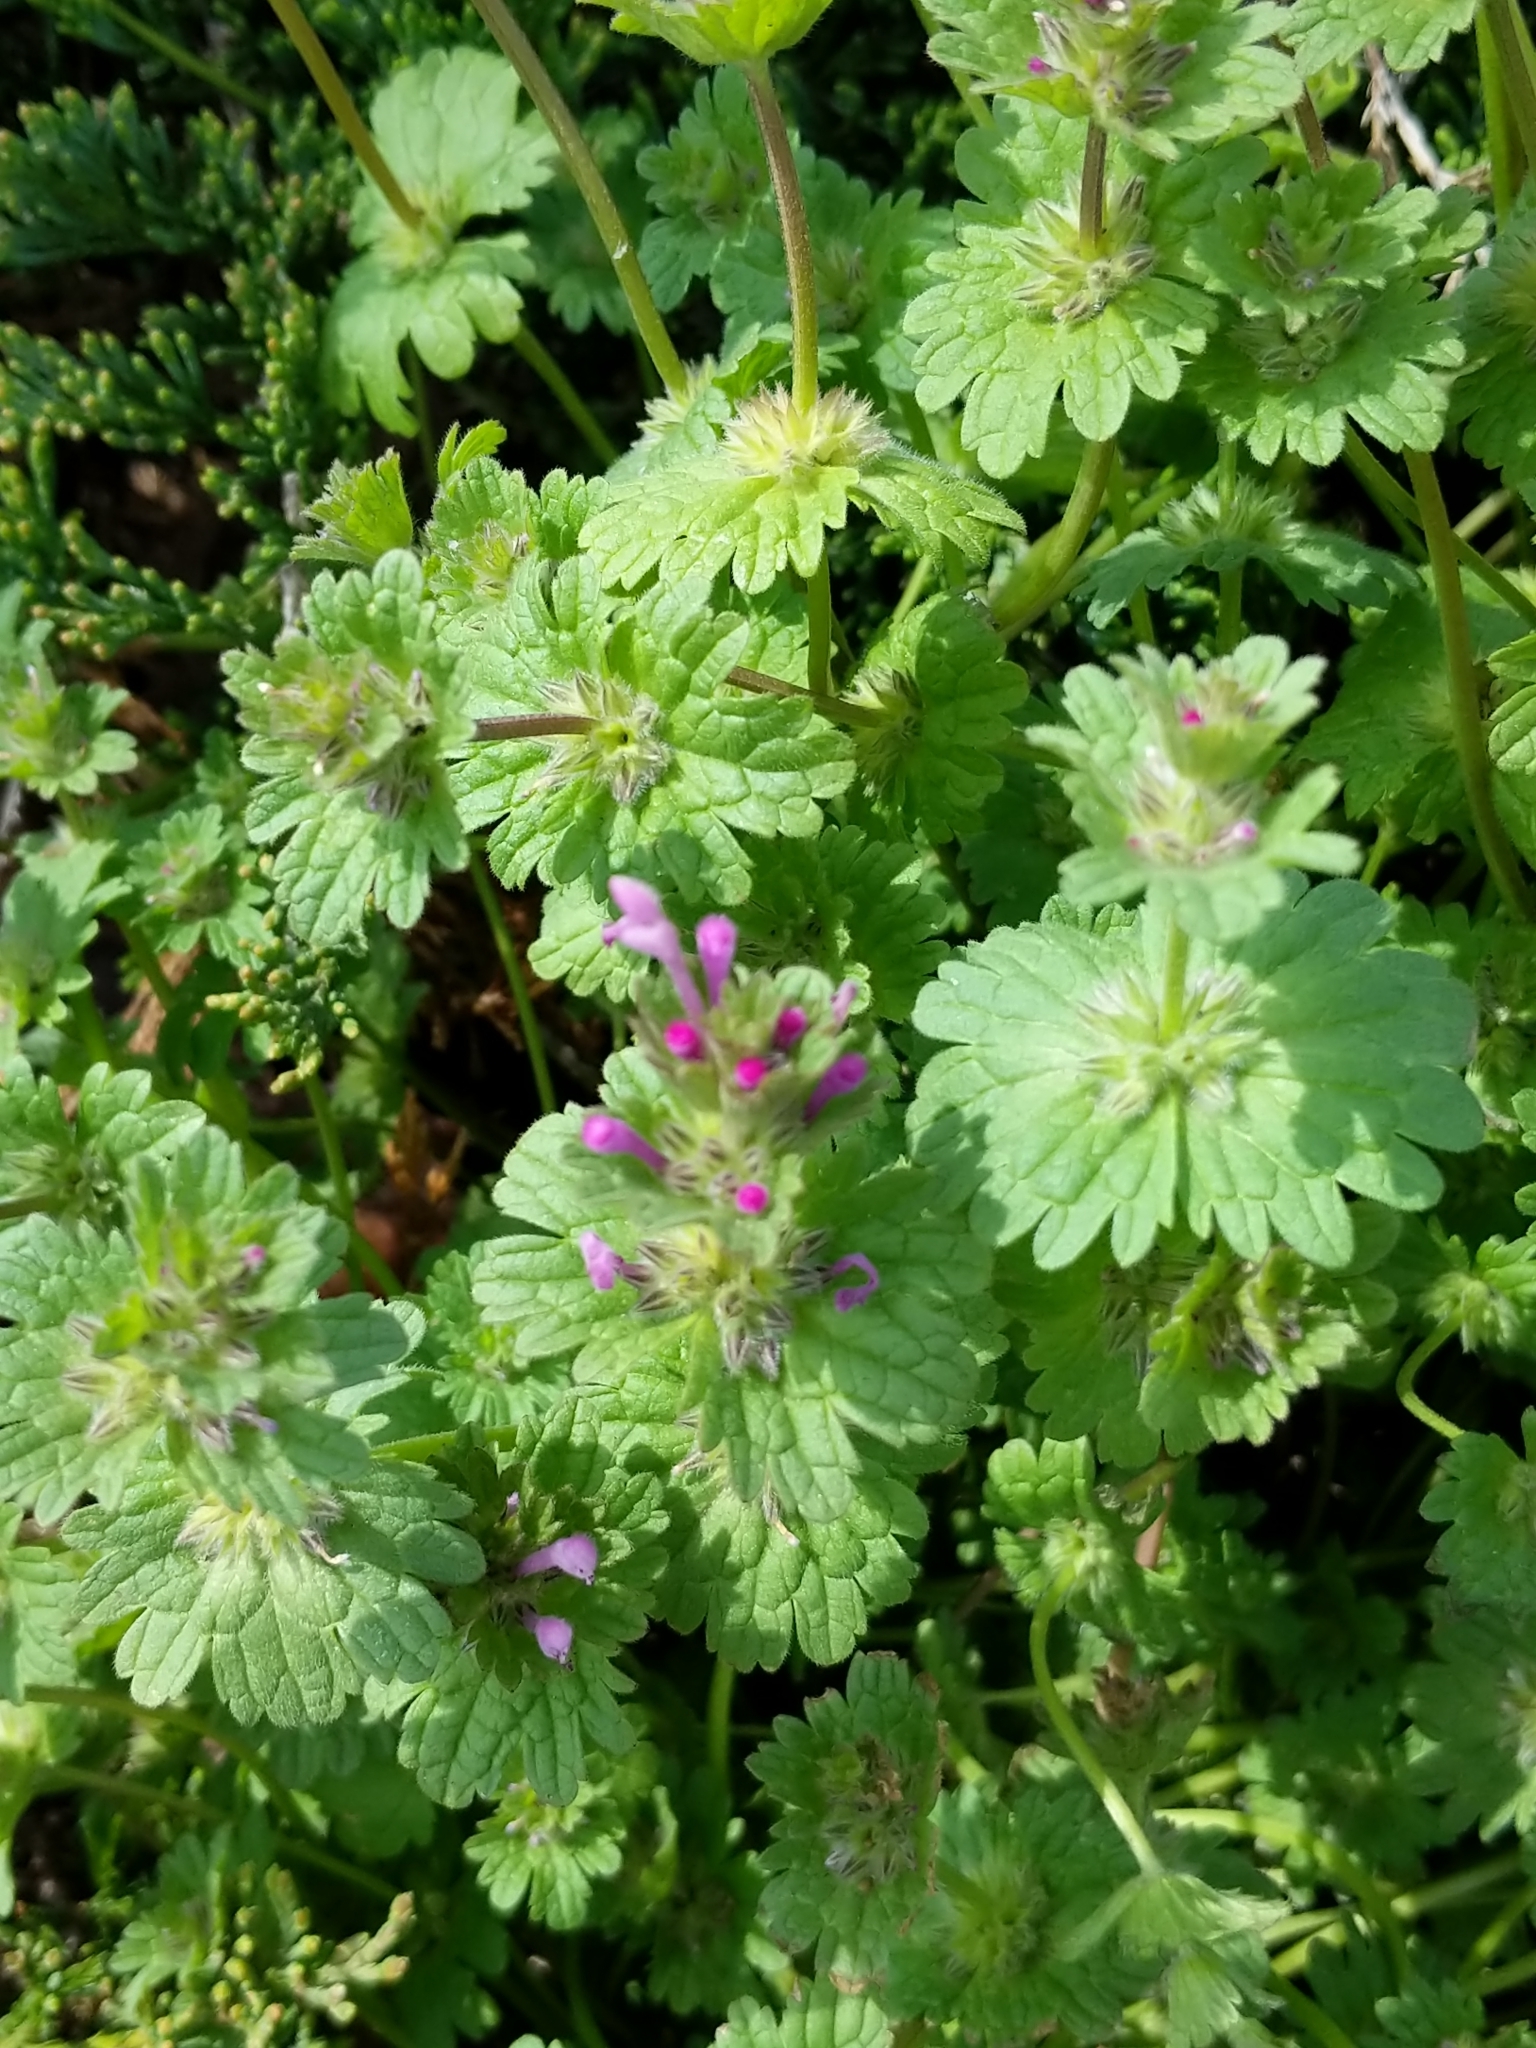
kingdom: Plantae
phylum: Tracheophyta
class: Magnoliopsida
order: Lamiales
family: Lamiaceae
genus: Lamium
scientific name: Lamium amplexicaule
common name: Henbit dead-nettle
